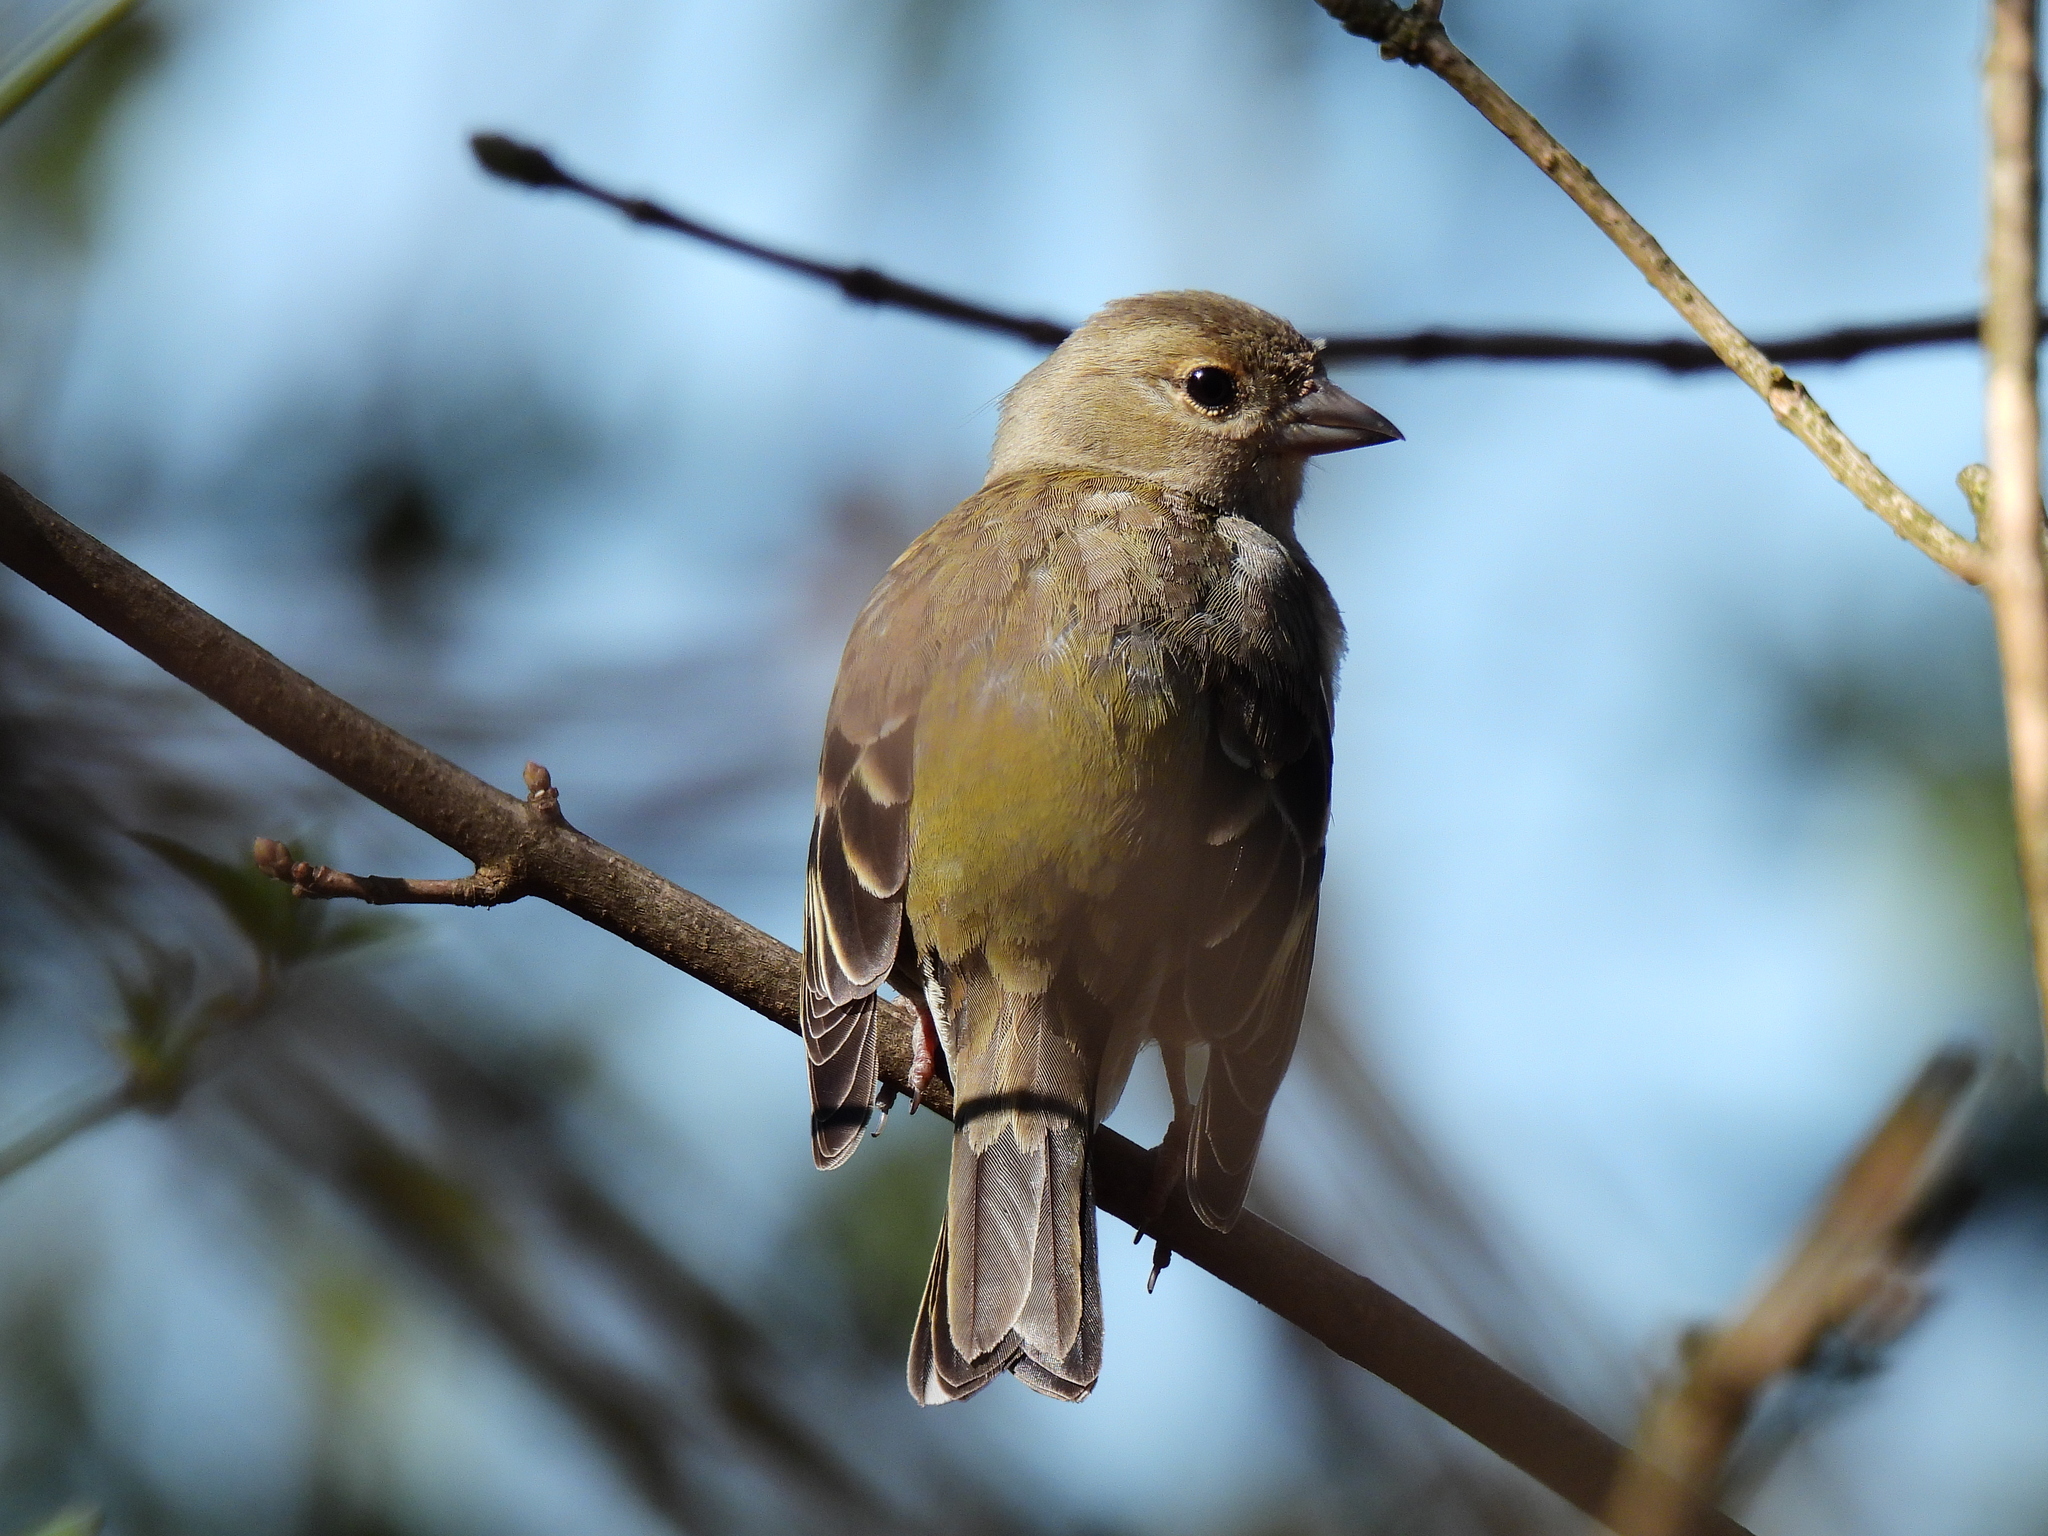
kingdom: Animalia
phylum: Chordata
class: Aves
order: Passeriformes
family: Fringillidae
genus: Fringilla
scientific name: Fringilla coelebs
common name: Common chaffinch
